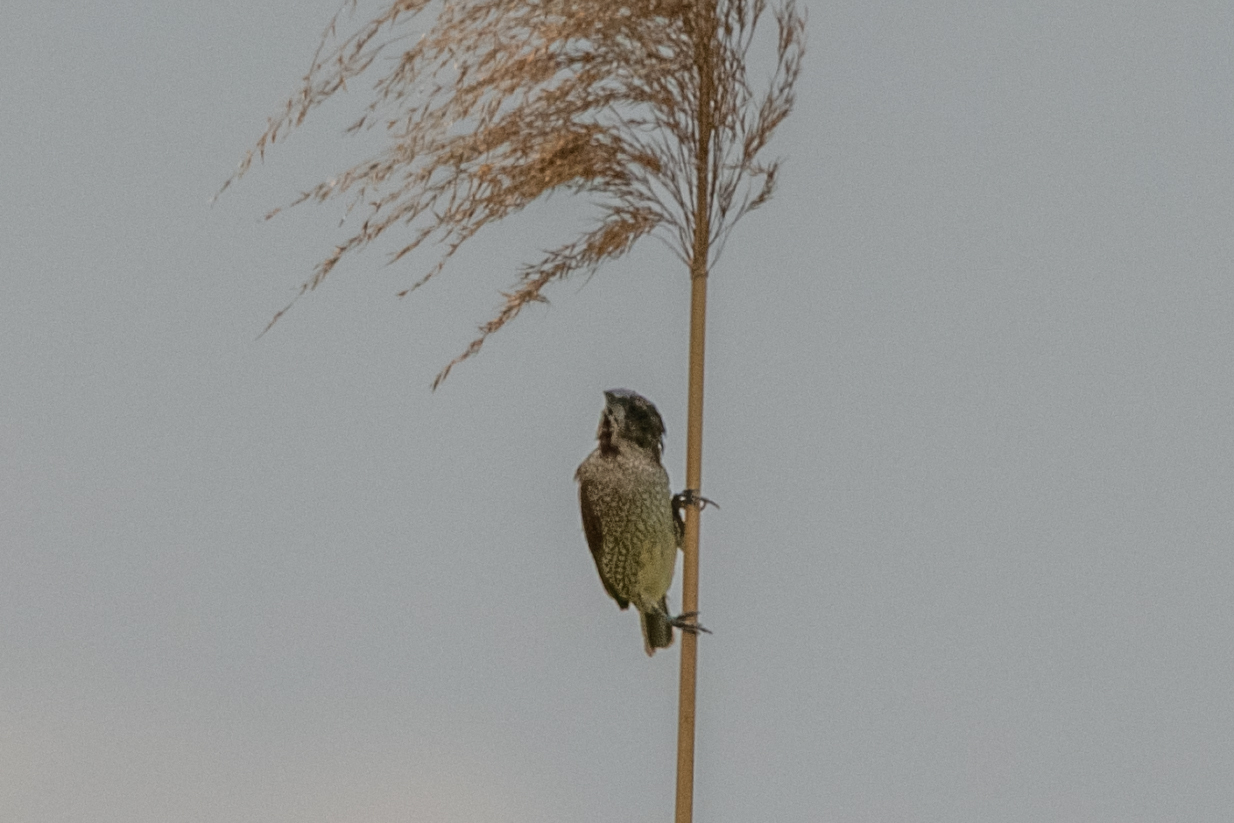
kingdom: Animalia
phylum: Chordata
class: Aves
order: Passeriformes
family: Estrildidae
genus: Lonchura
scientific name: Lonchura punctulata
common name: Scaly-breasted munia
